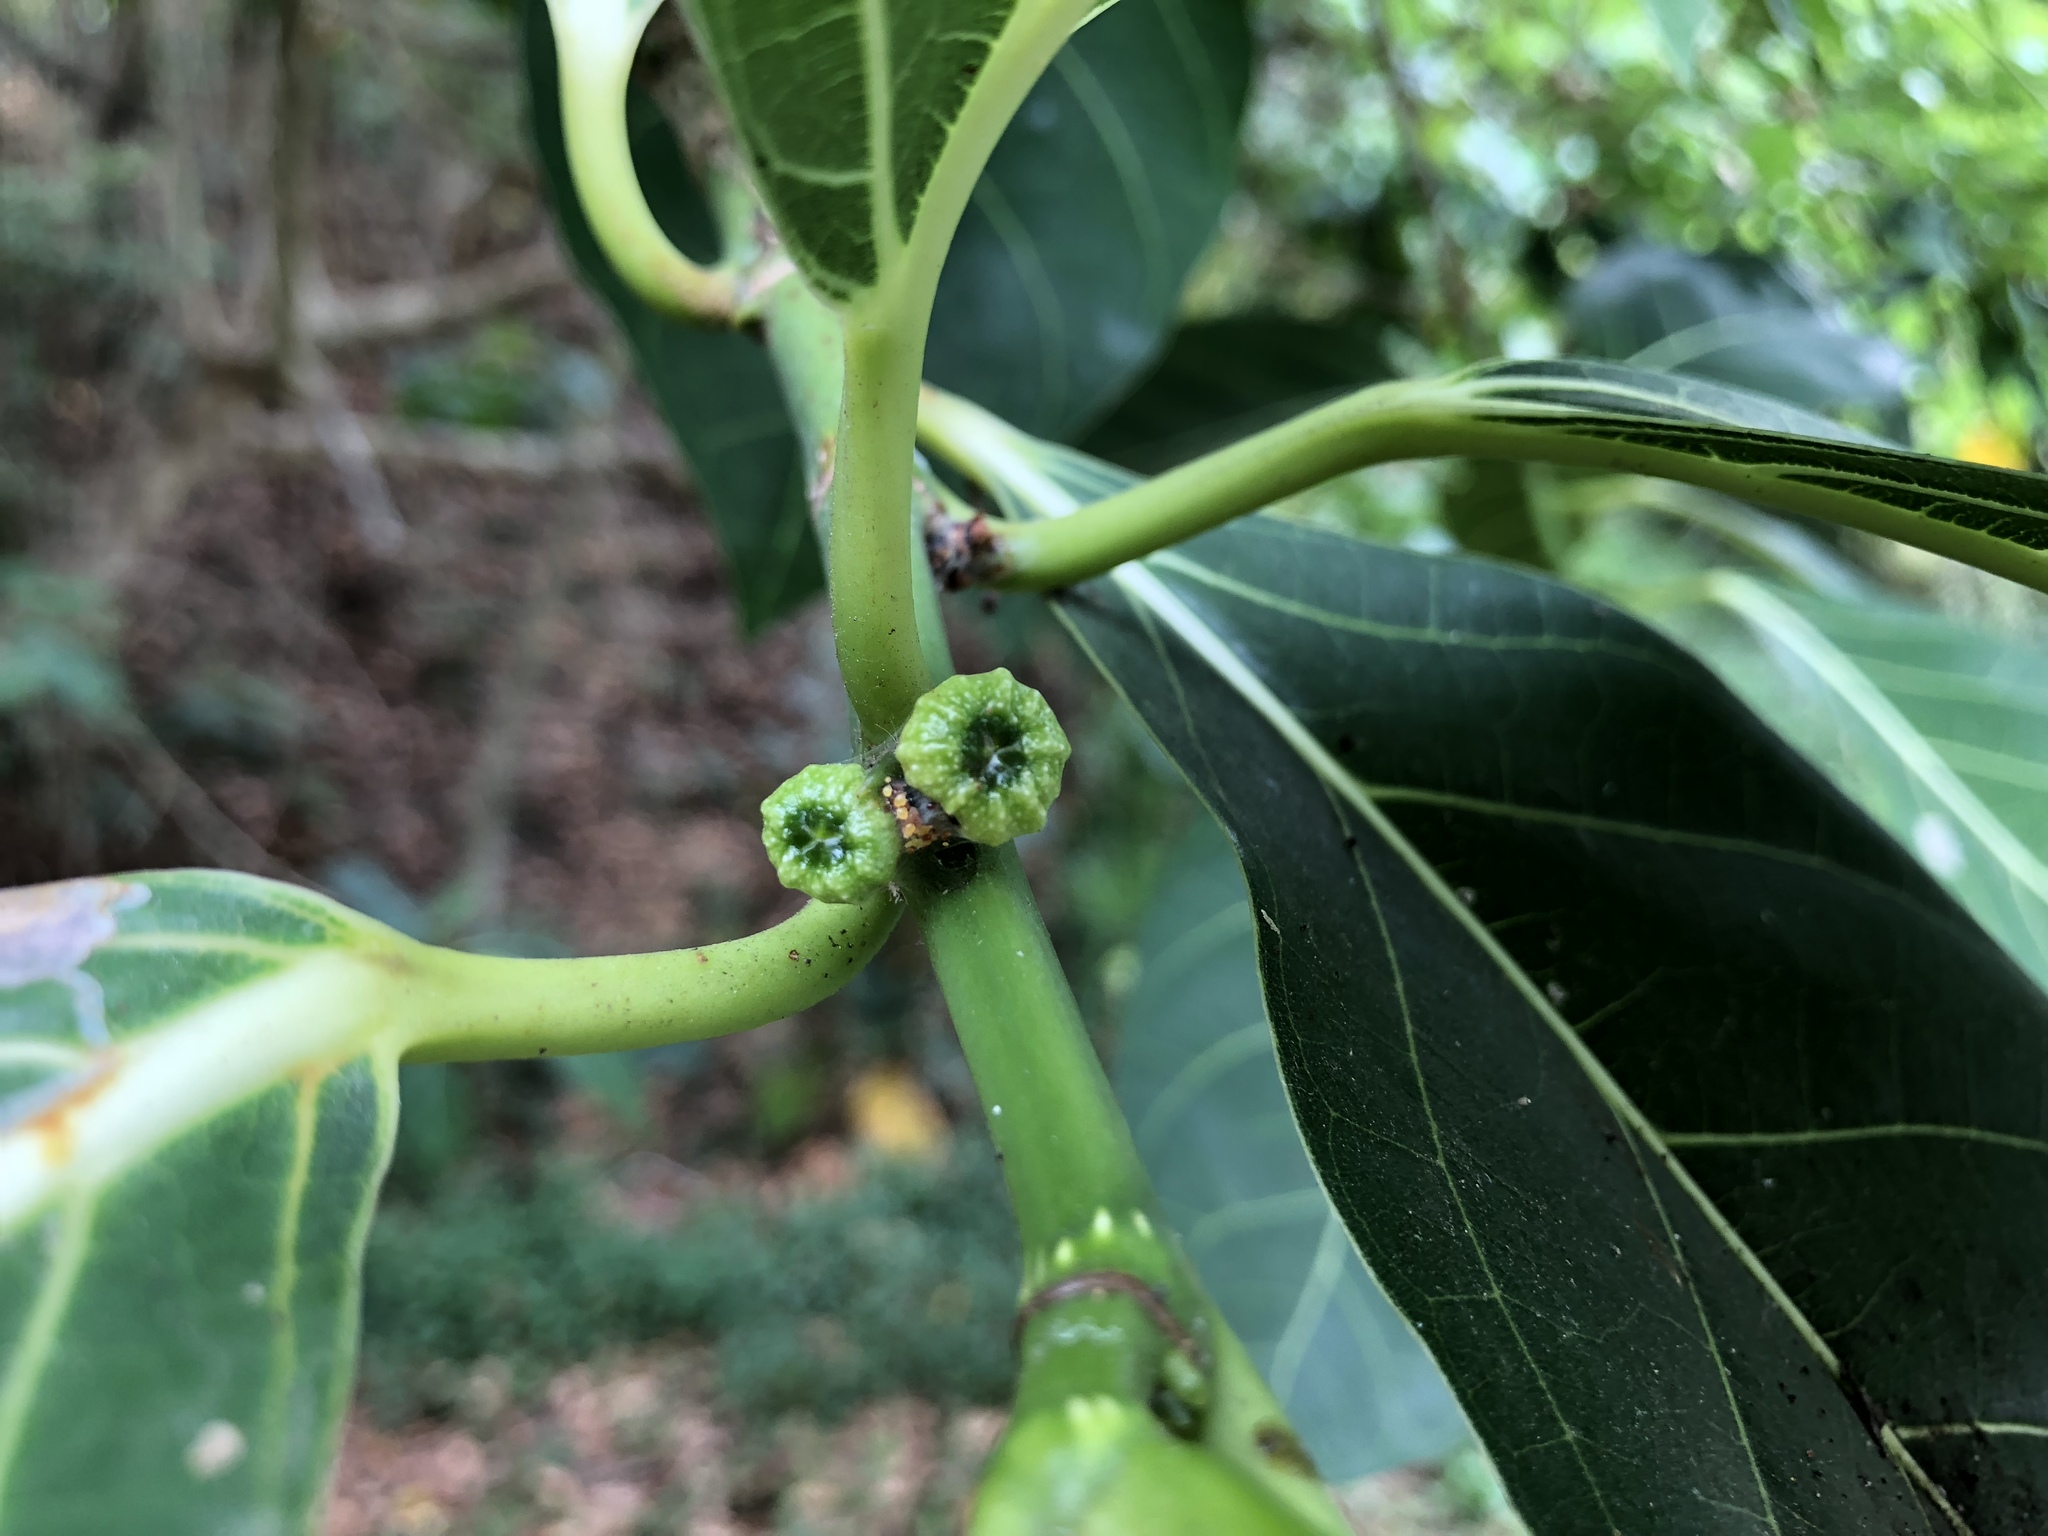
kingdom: Plantae
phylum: Tracheophyta
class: Magnoliopsida
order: Rosales
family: Moraceae
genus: Ficus
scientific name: Ficus septica
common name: Septic fig
